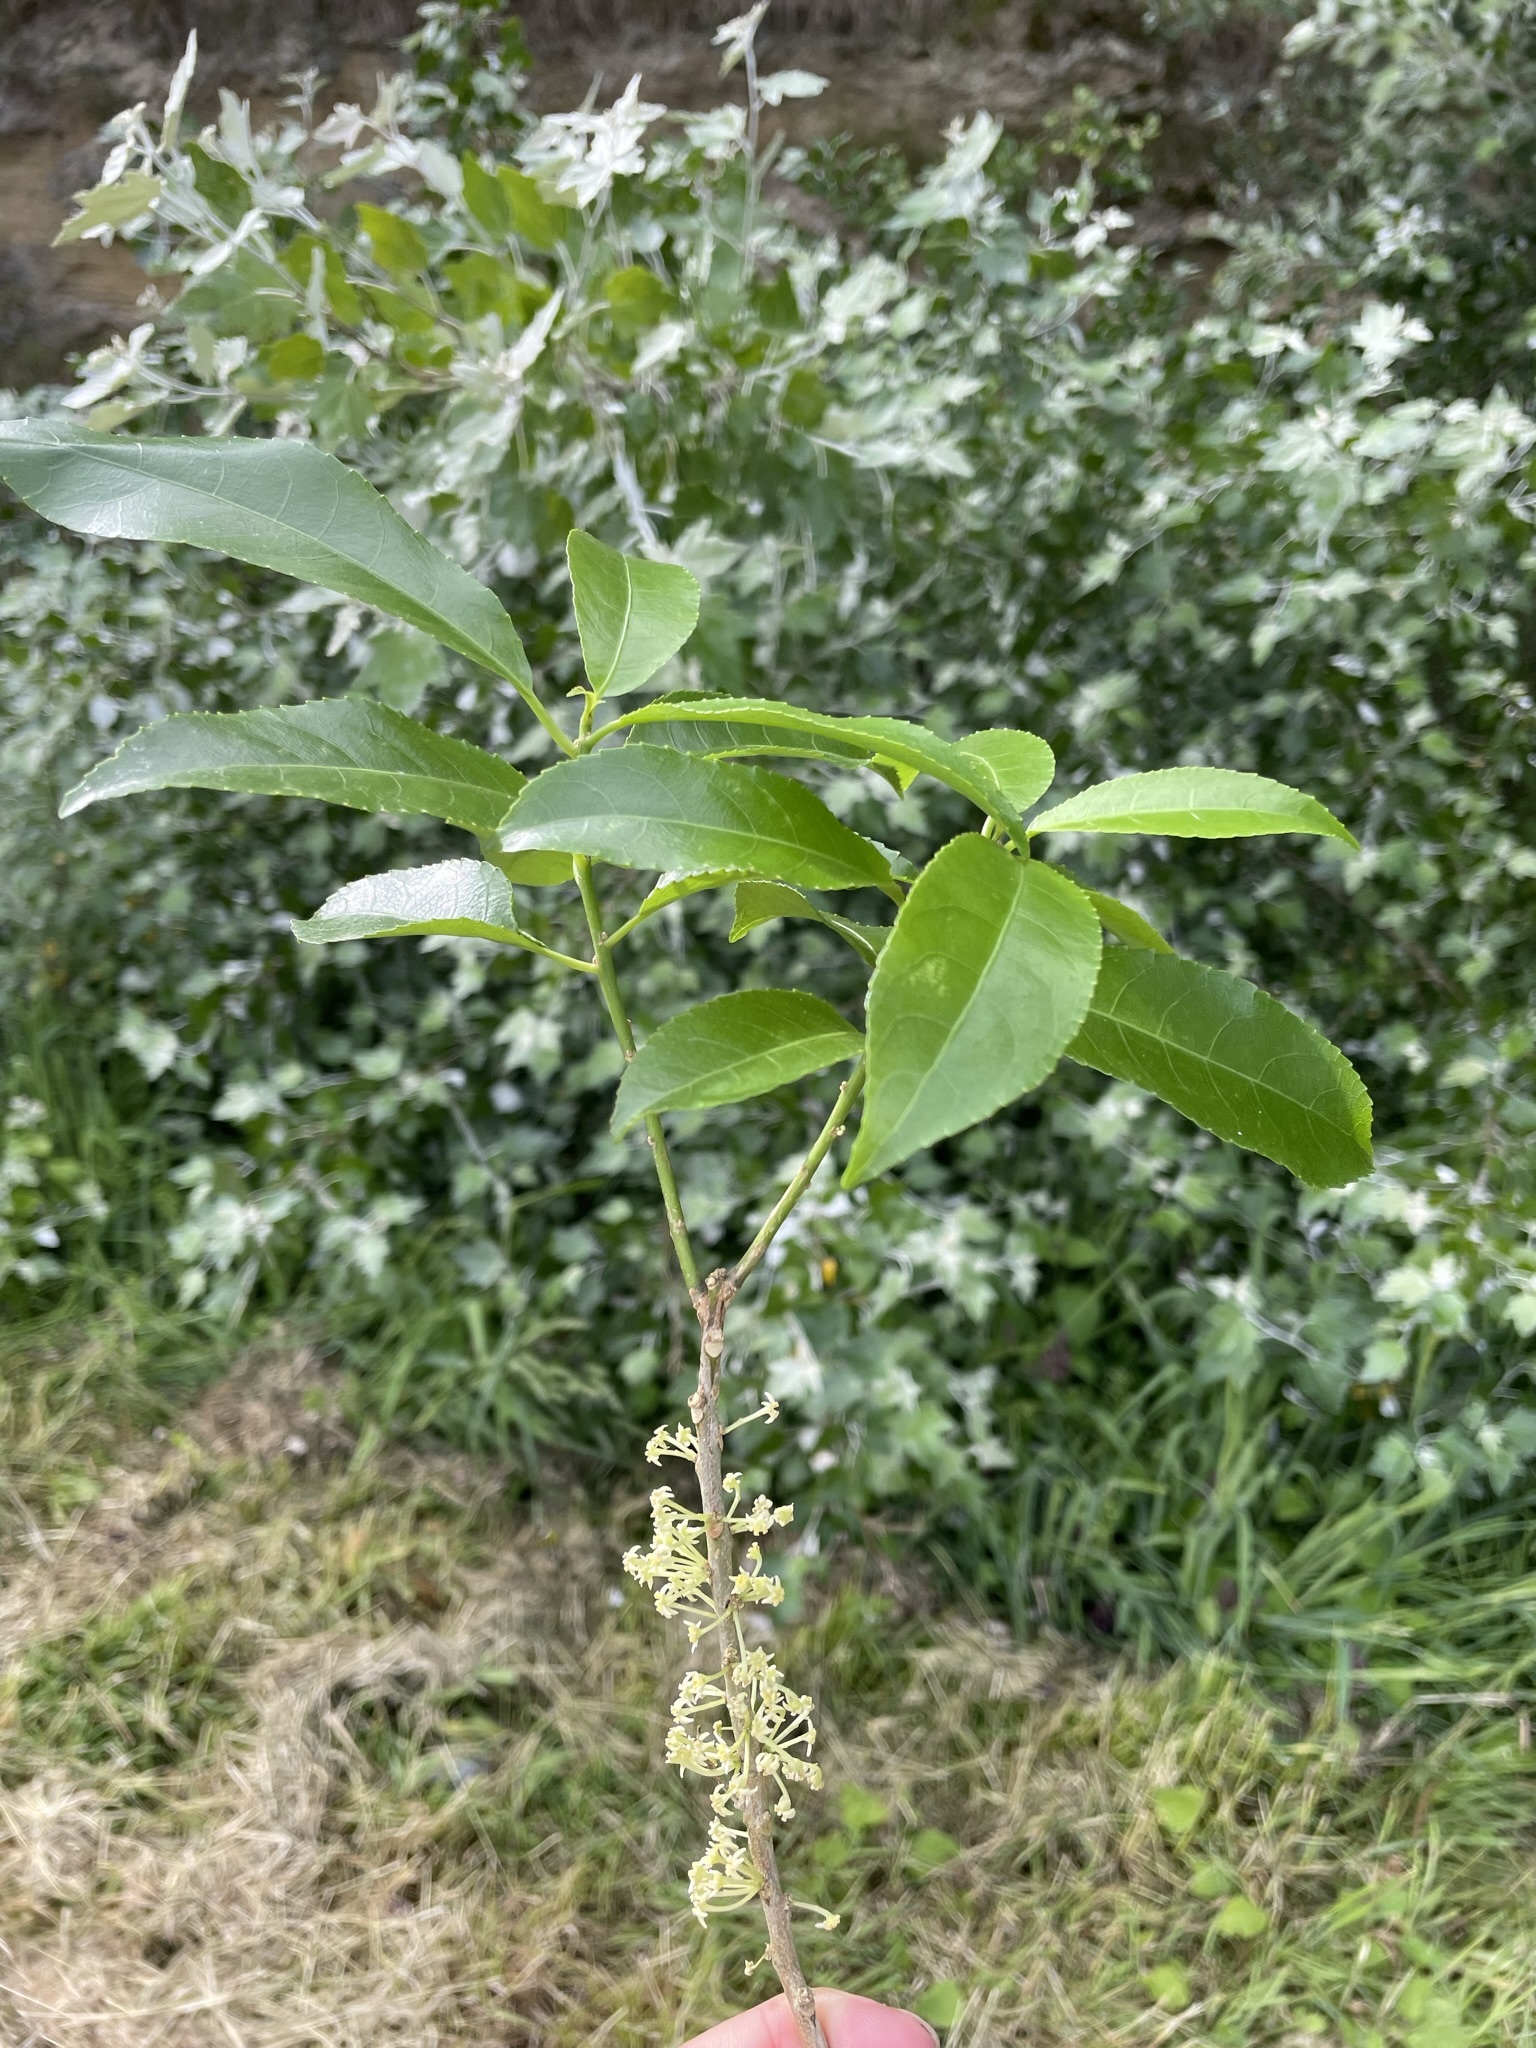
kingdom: Plantae
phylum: Tracheophyta
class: Magnoliopsida
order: Malpighiales
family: Violaceae
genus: Melicytus
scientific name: Melicytus ramiflorus
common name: Mahoe
